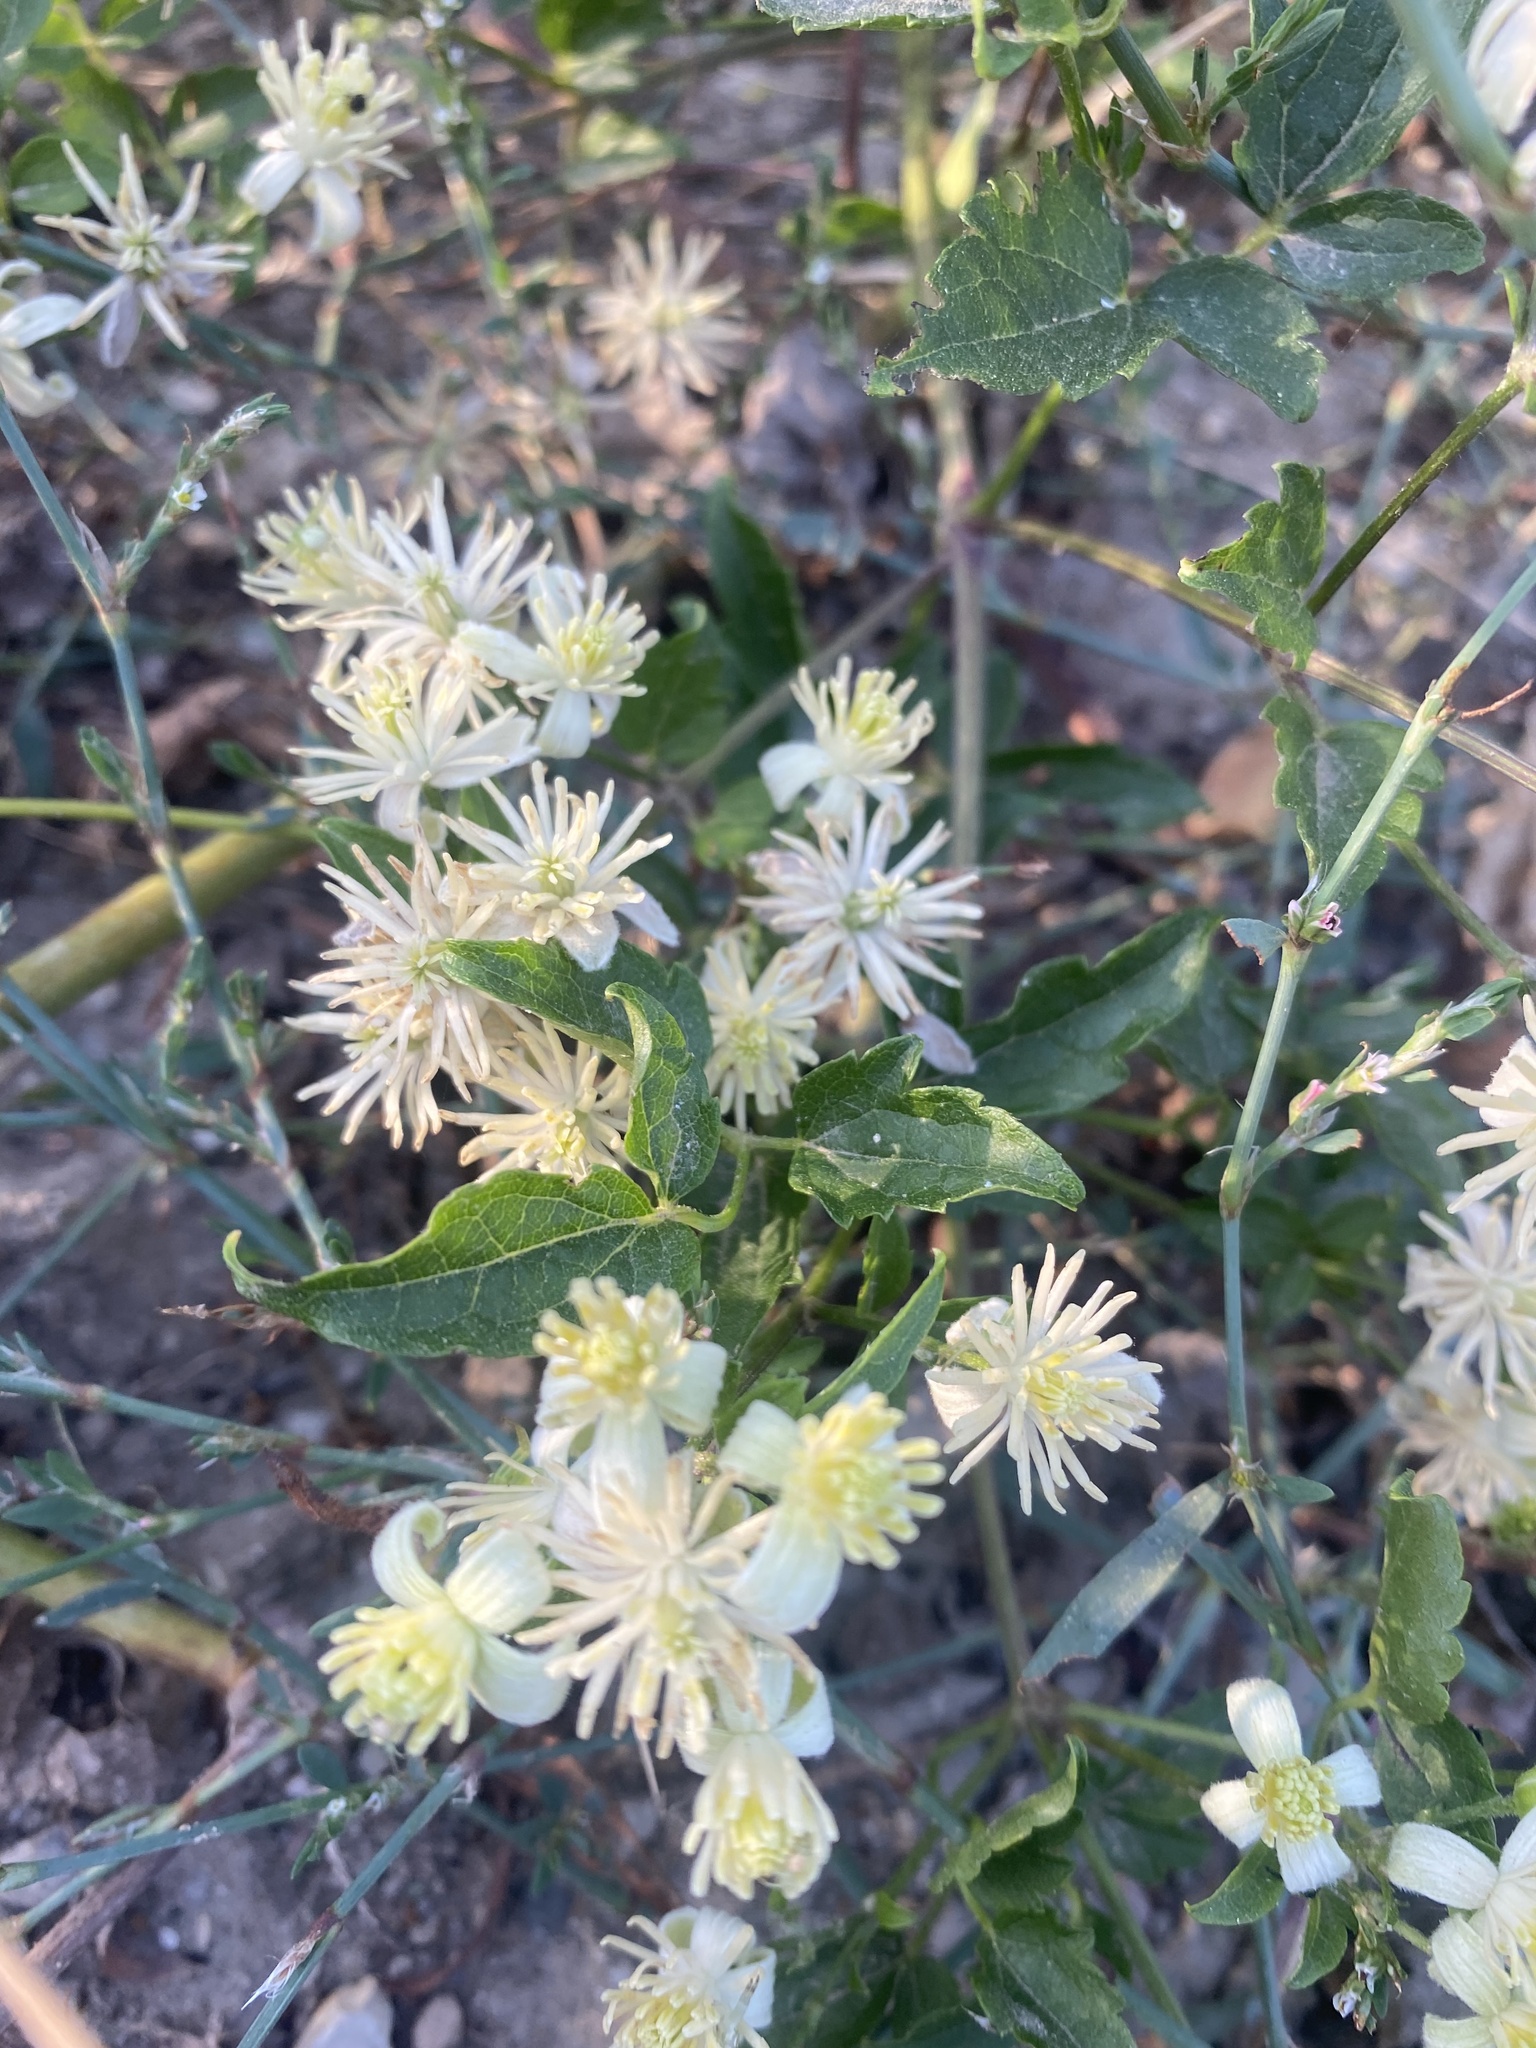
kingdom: Plantae
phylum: Tracheophyta
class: Magnoliopsida
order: Ranunculales
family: Ranunculaceae
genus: Clematis
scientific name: Clematis vitalba
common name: Evergreen clematis
